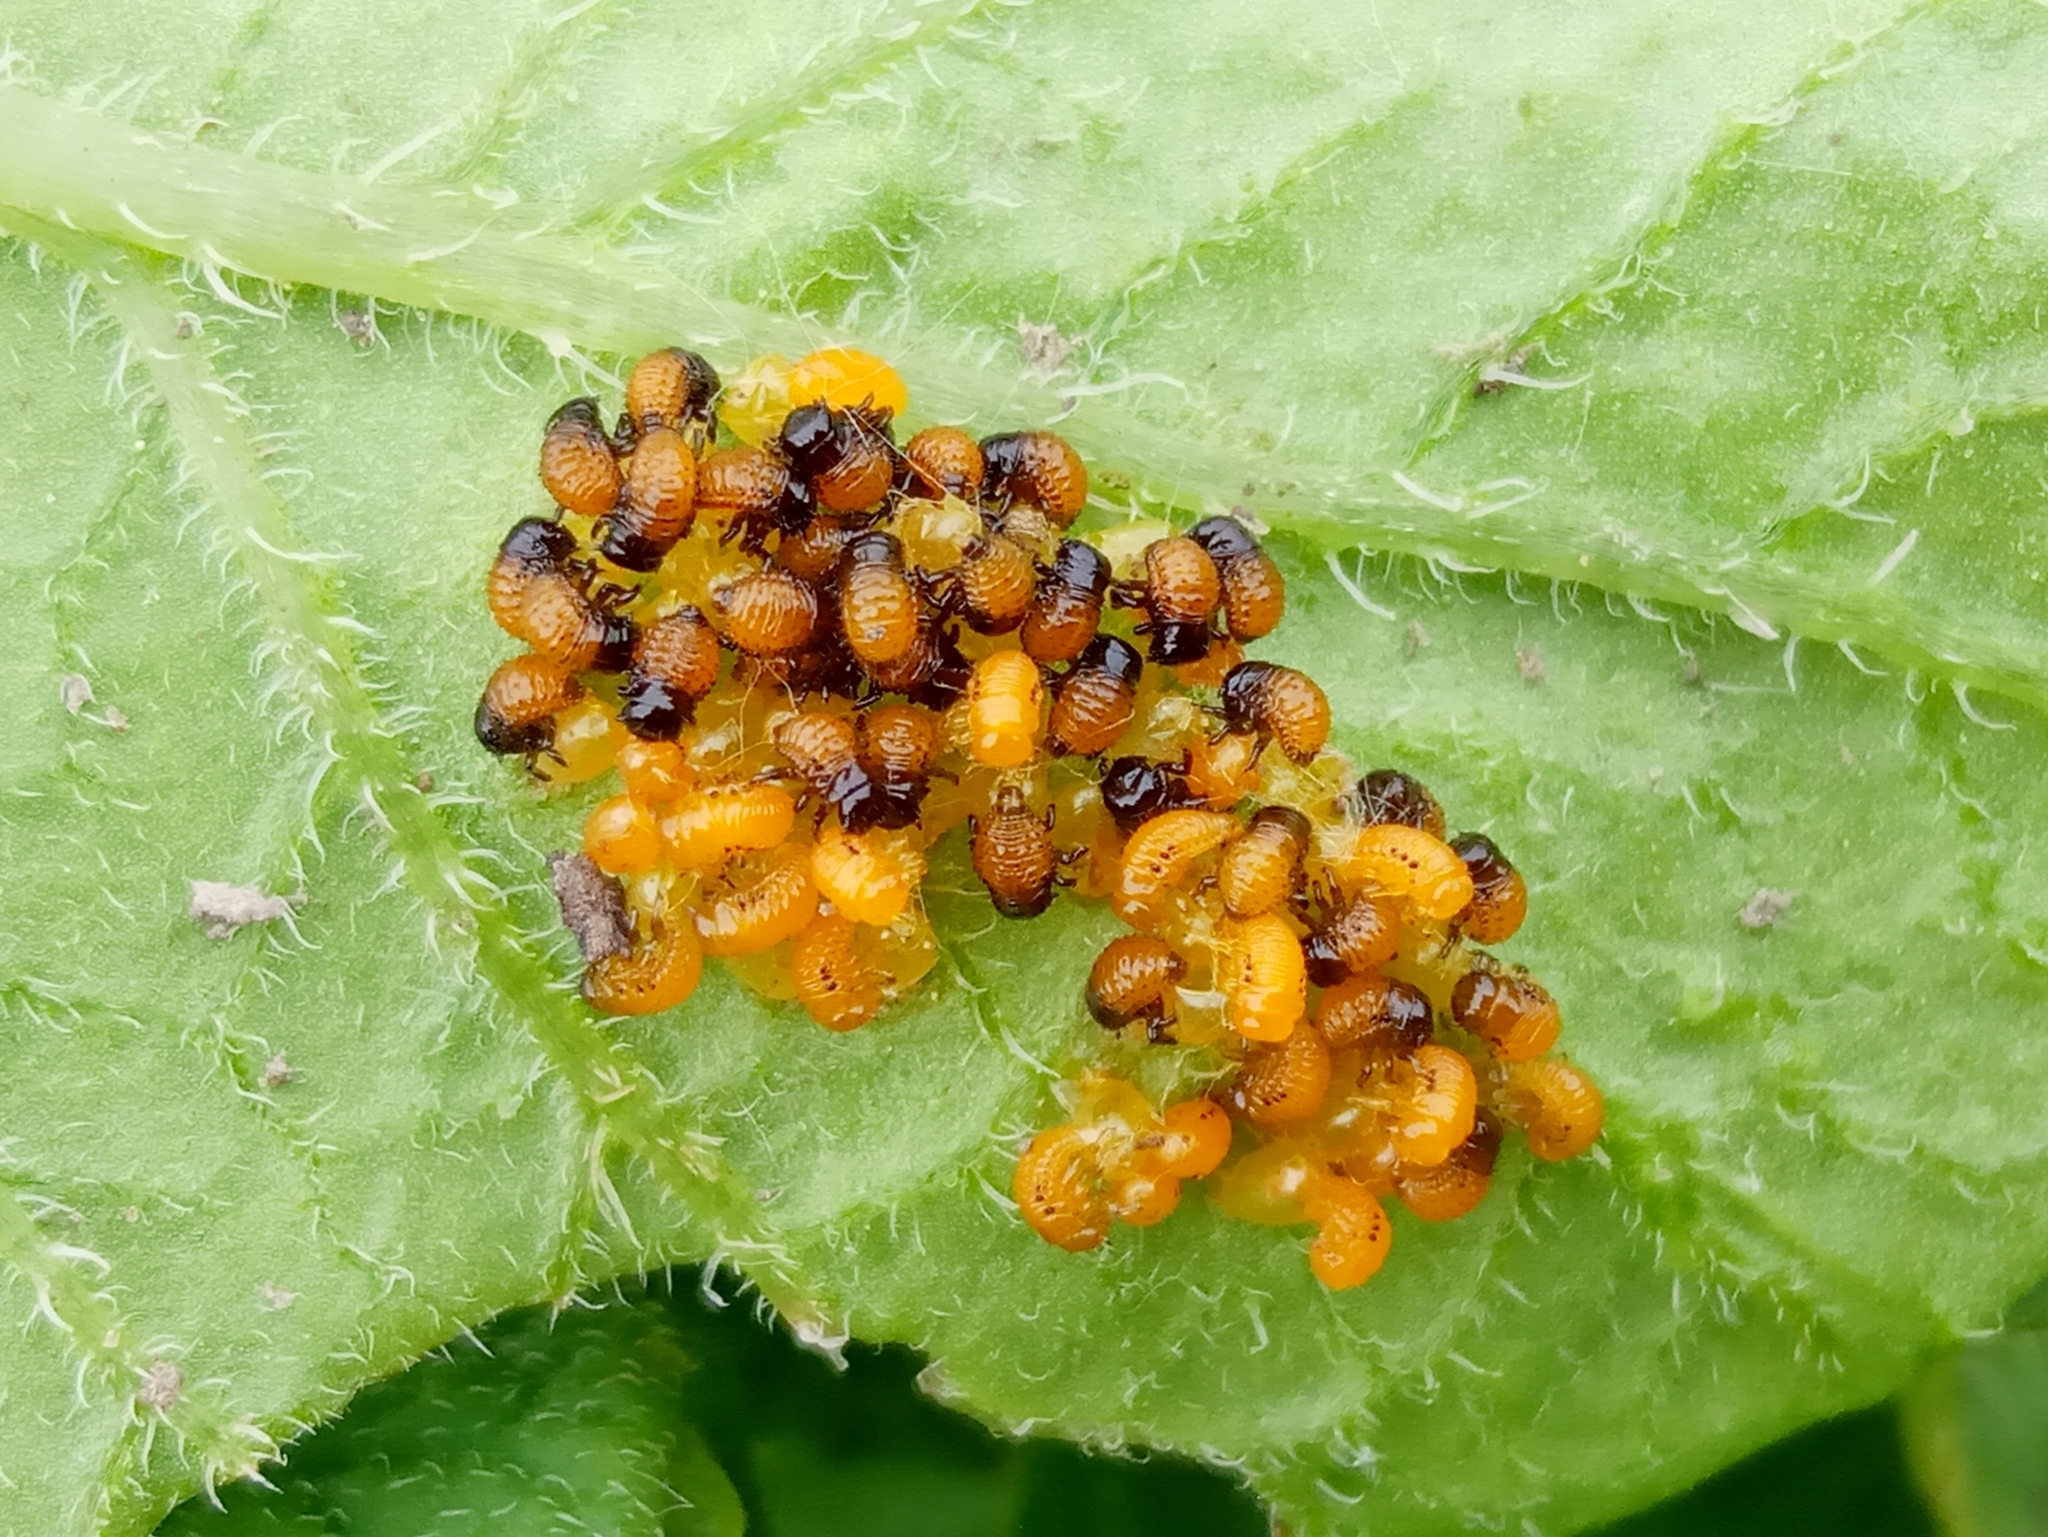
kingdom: Animalia
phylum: Arthropoda
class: Insecta
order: Coleoptera
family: Chrysomelidae
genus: Leptinotarsa
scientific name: Leptinotarsa decemlineata
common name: Colorado potato beetle
